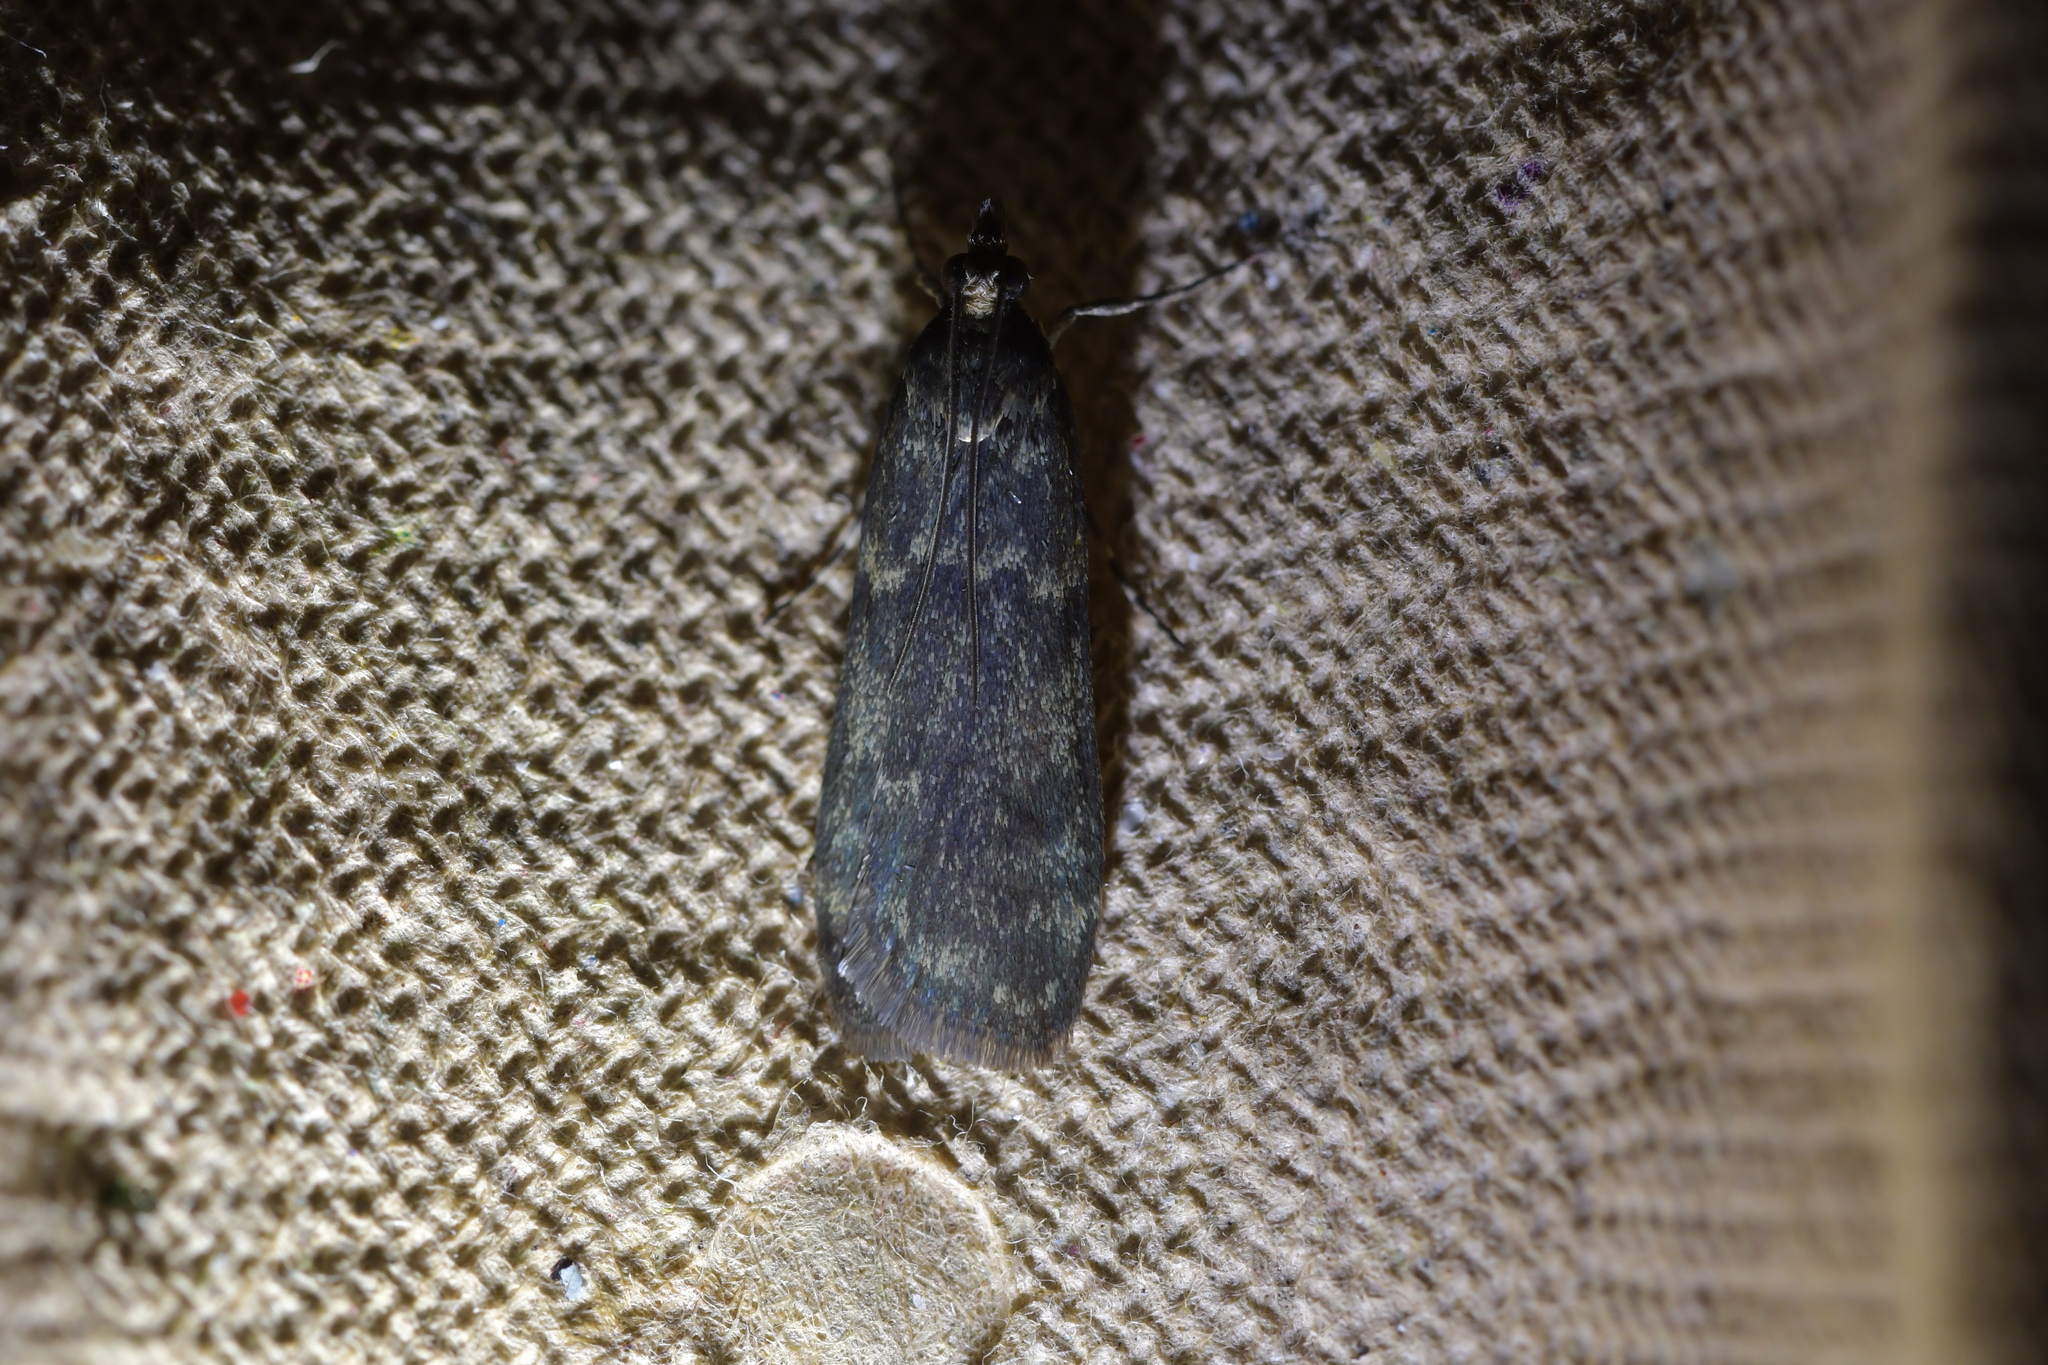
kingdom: Animalia
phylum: Arthropoda
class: Insecta
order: Lepidoptera
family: Crambidae
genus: Eudonia
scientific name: Eudonia cataxesta
